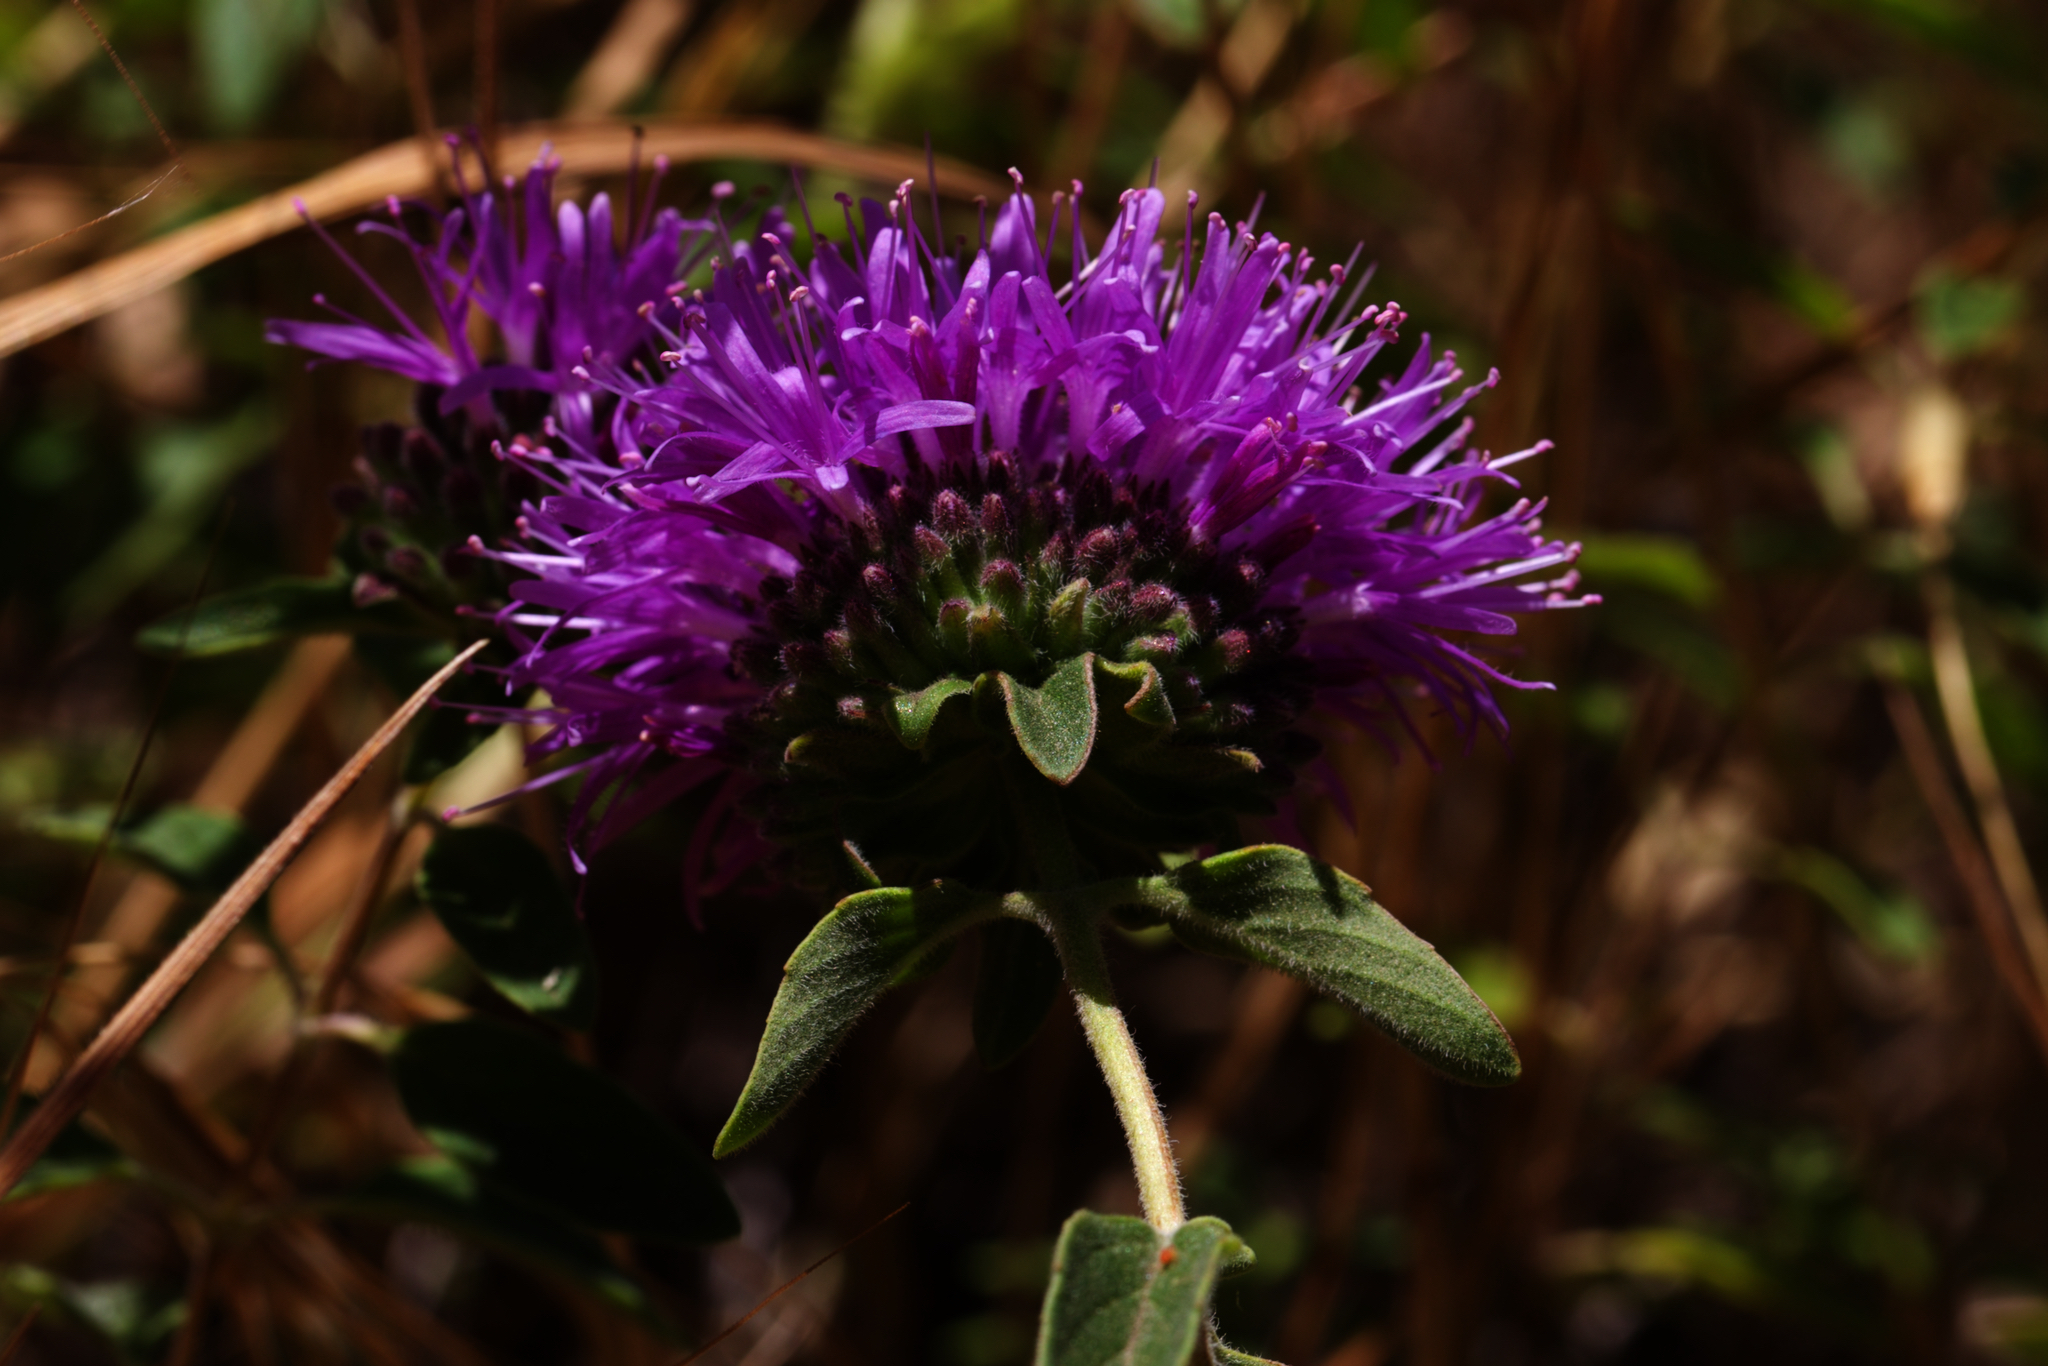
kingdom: Plantae
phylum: Tracheophyta
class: Magnoliopsida
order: Lamiales
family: Lamiaceae
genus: Monardella
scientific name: Monardella odoratissima
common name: Pacific monardella
